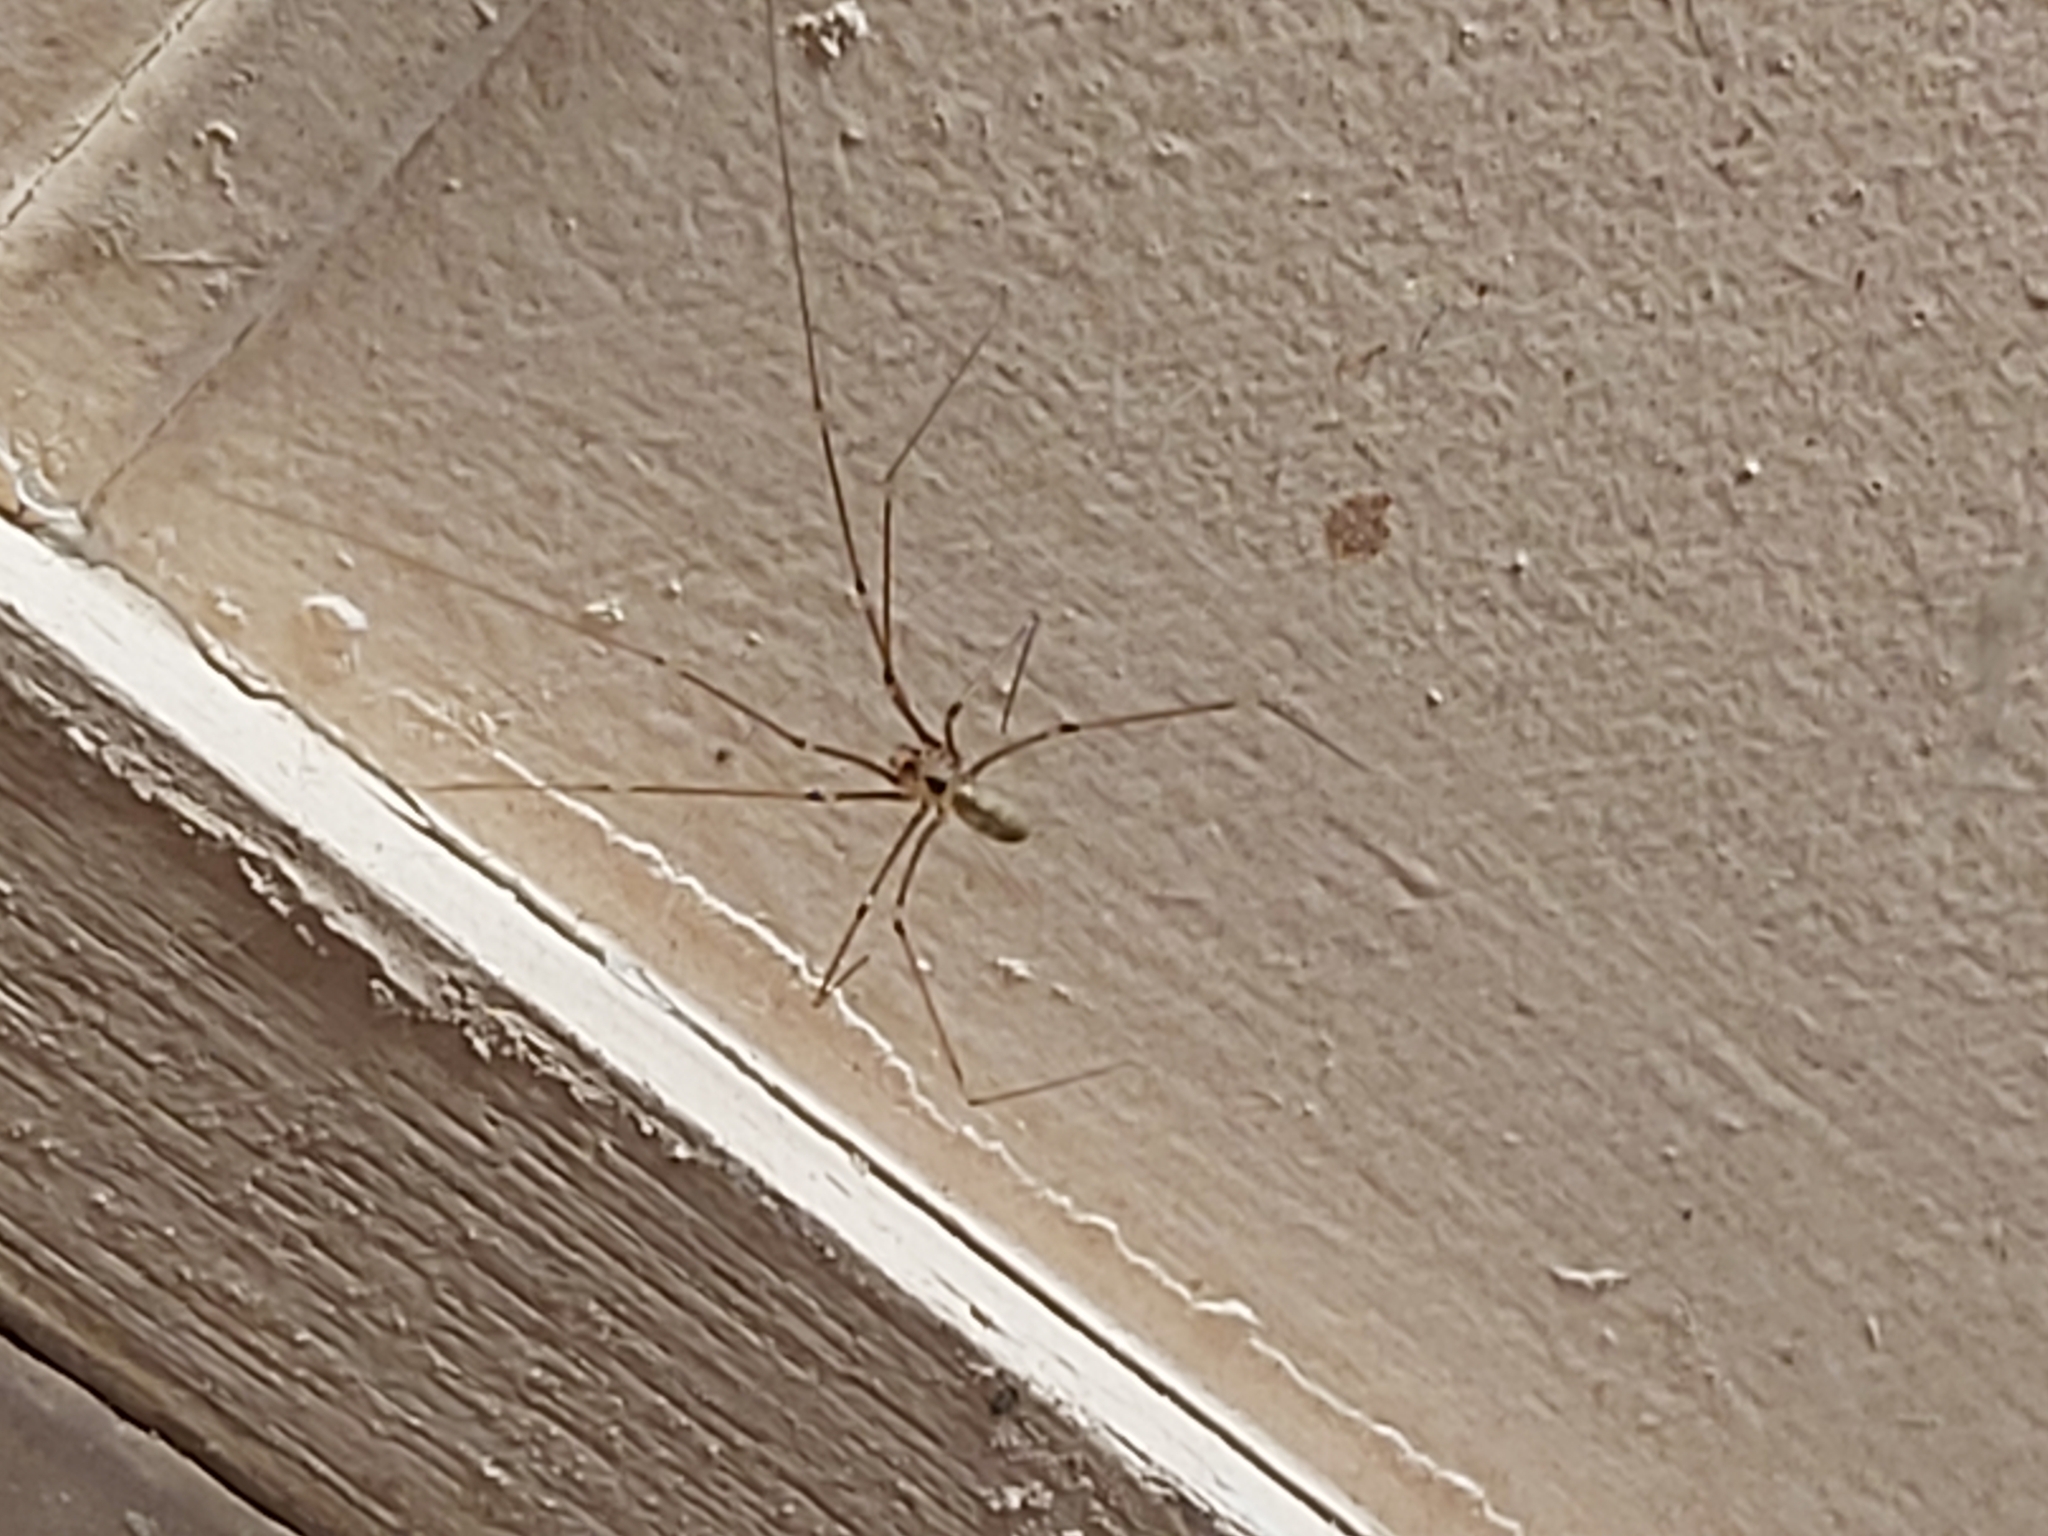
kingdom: Animalia
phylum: Arthropoda
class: Arachnida
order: Araneae
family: Pholcidae
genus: Pholcus
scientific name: Pholcus phalangioides
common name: Longbodied cellar spider
